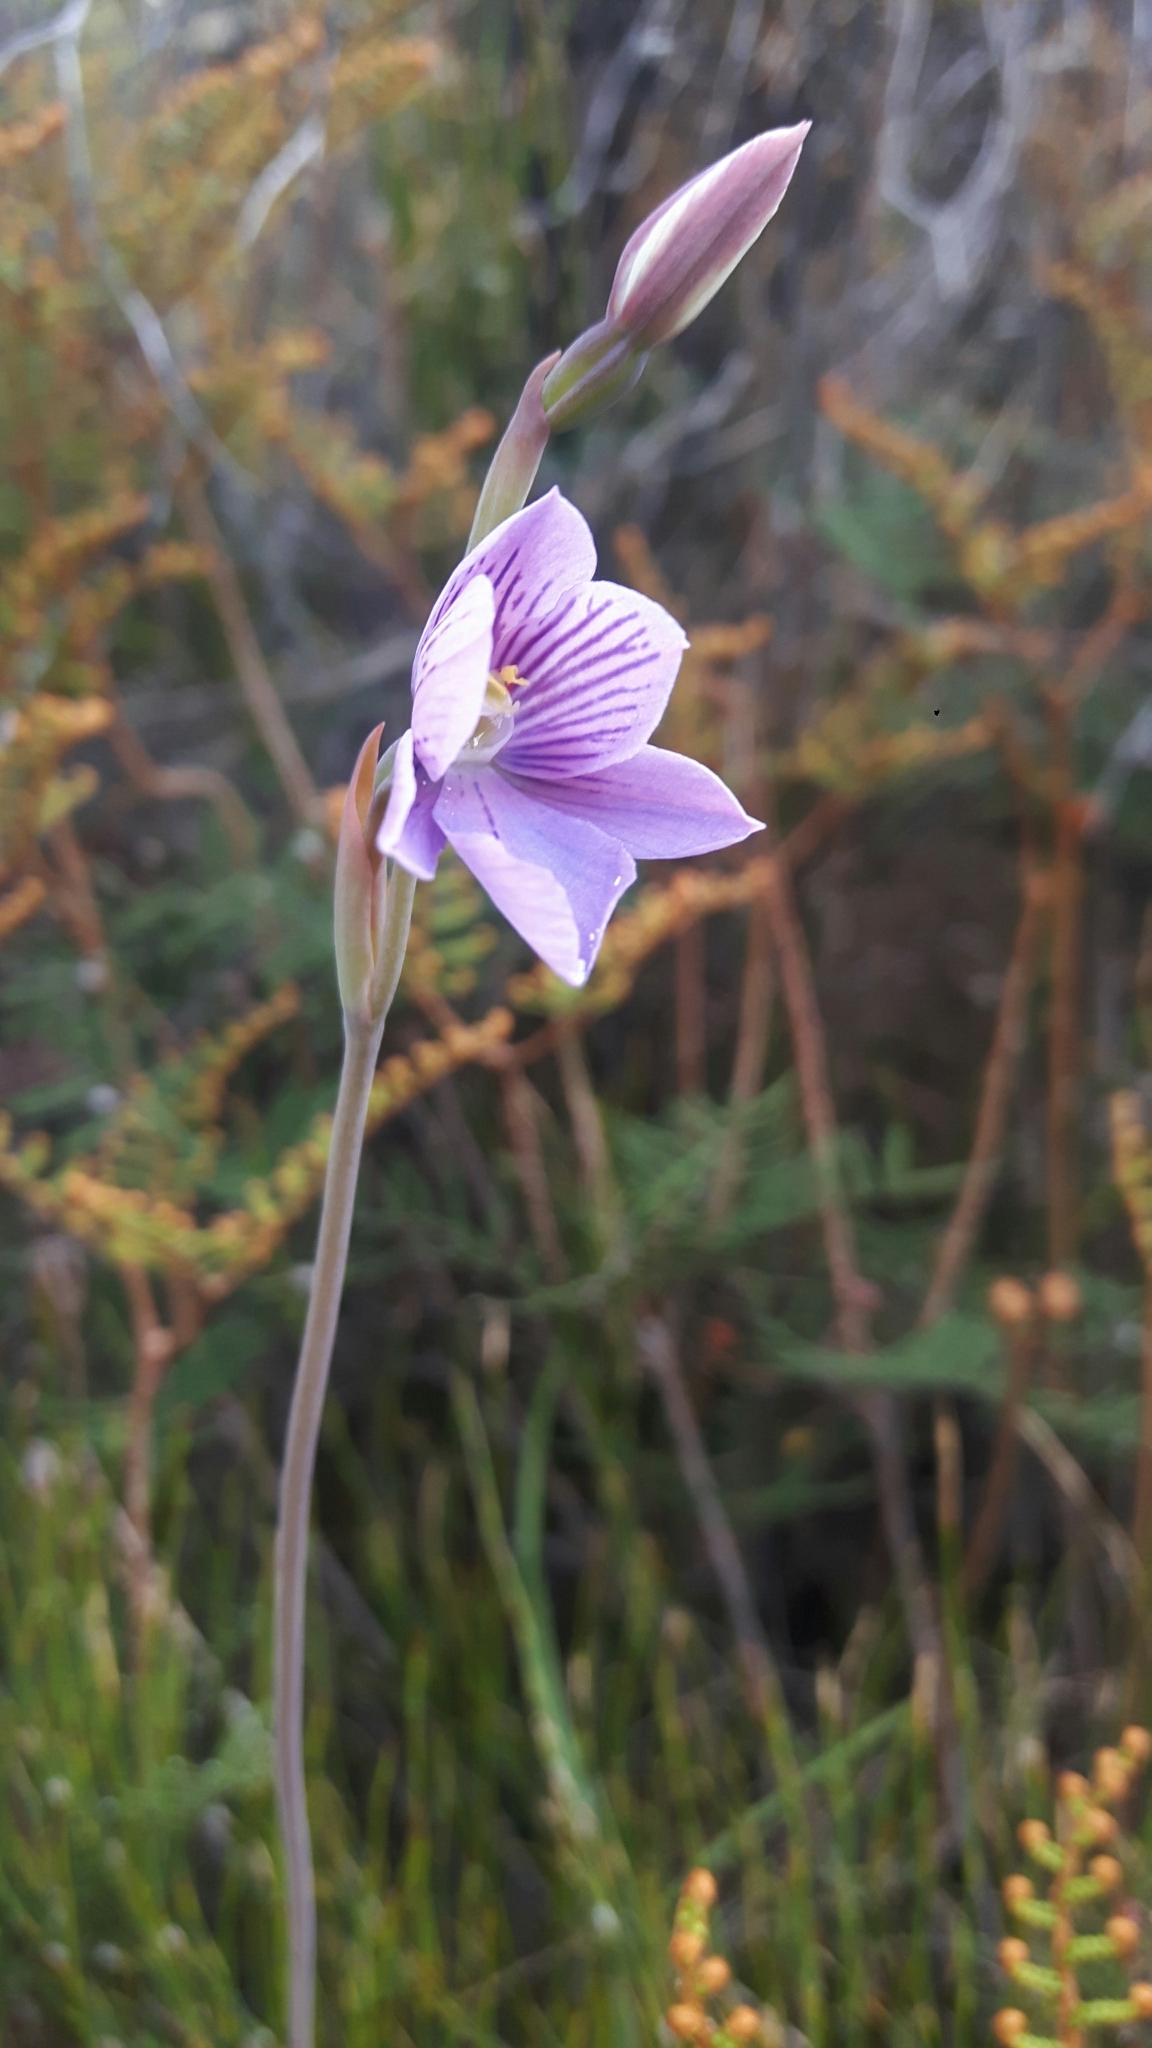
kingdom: Plantae
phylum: Tracheophyta
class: Liliopsida
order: Asparagales
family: Orchidaceae
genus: Thelymitra
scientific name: Thelymitra cyanea
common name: Blue sun-orchid
